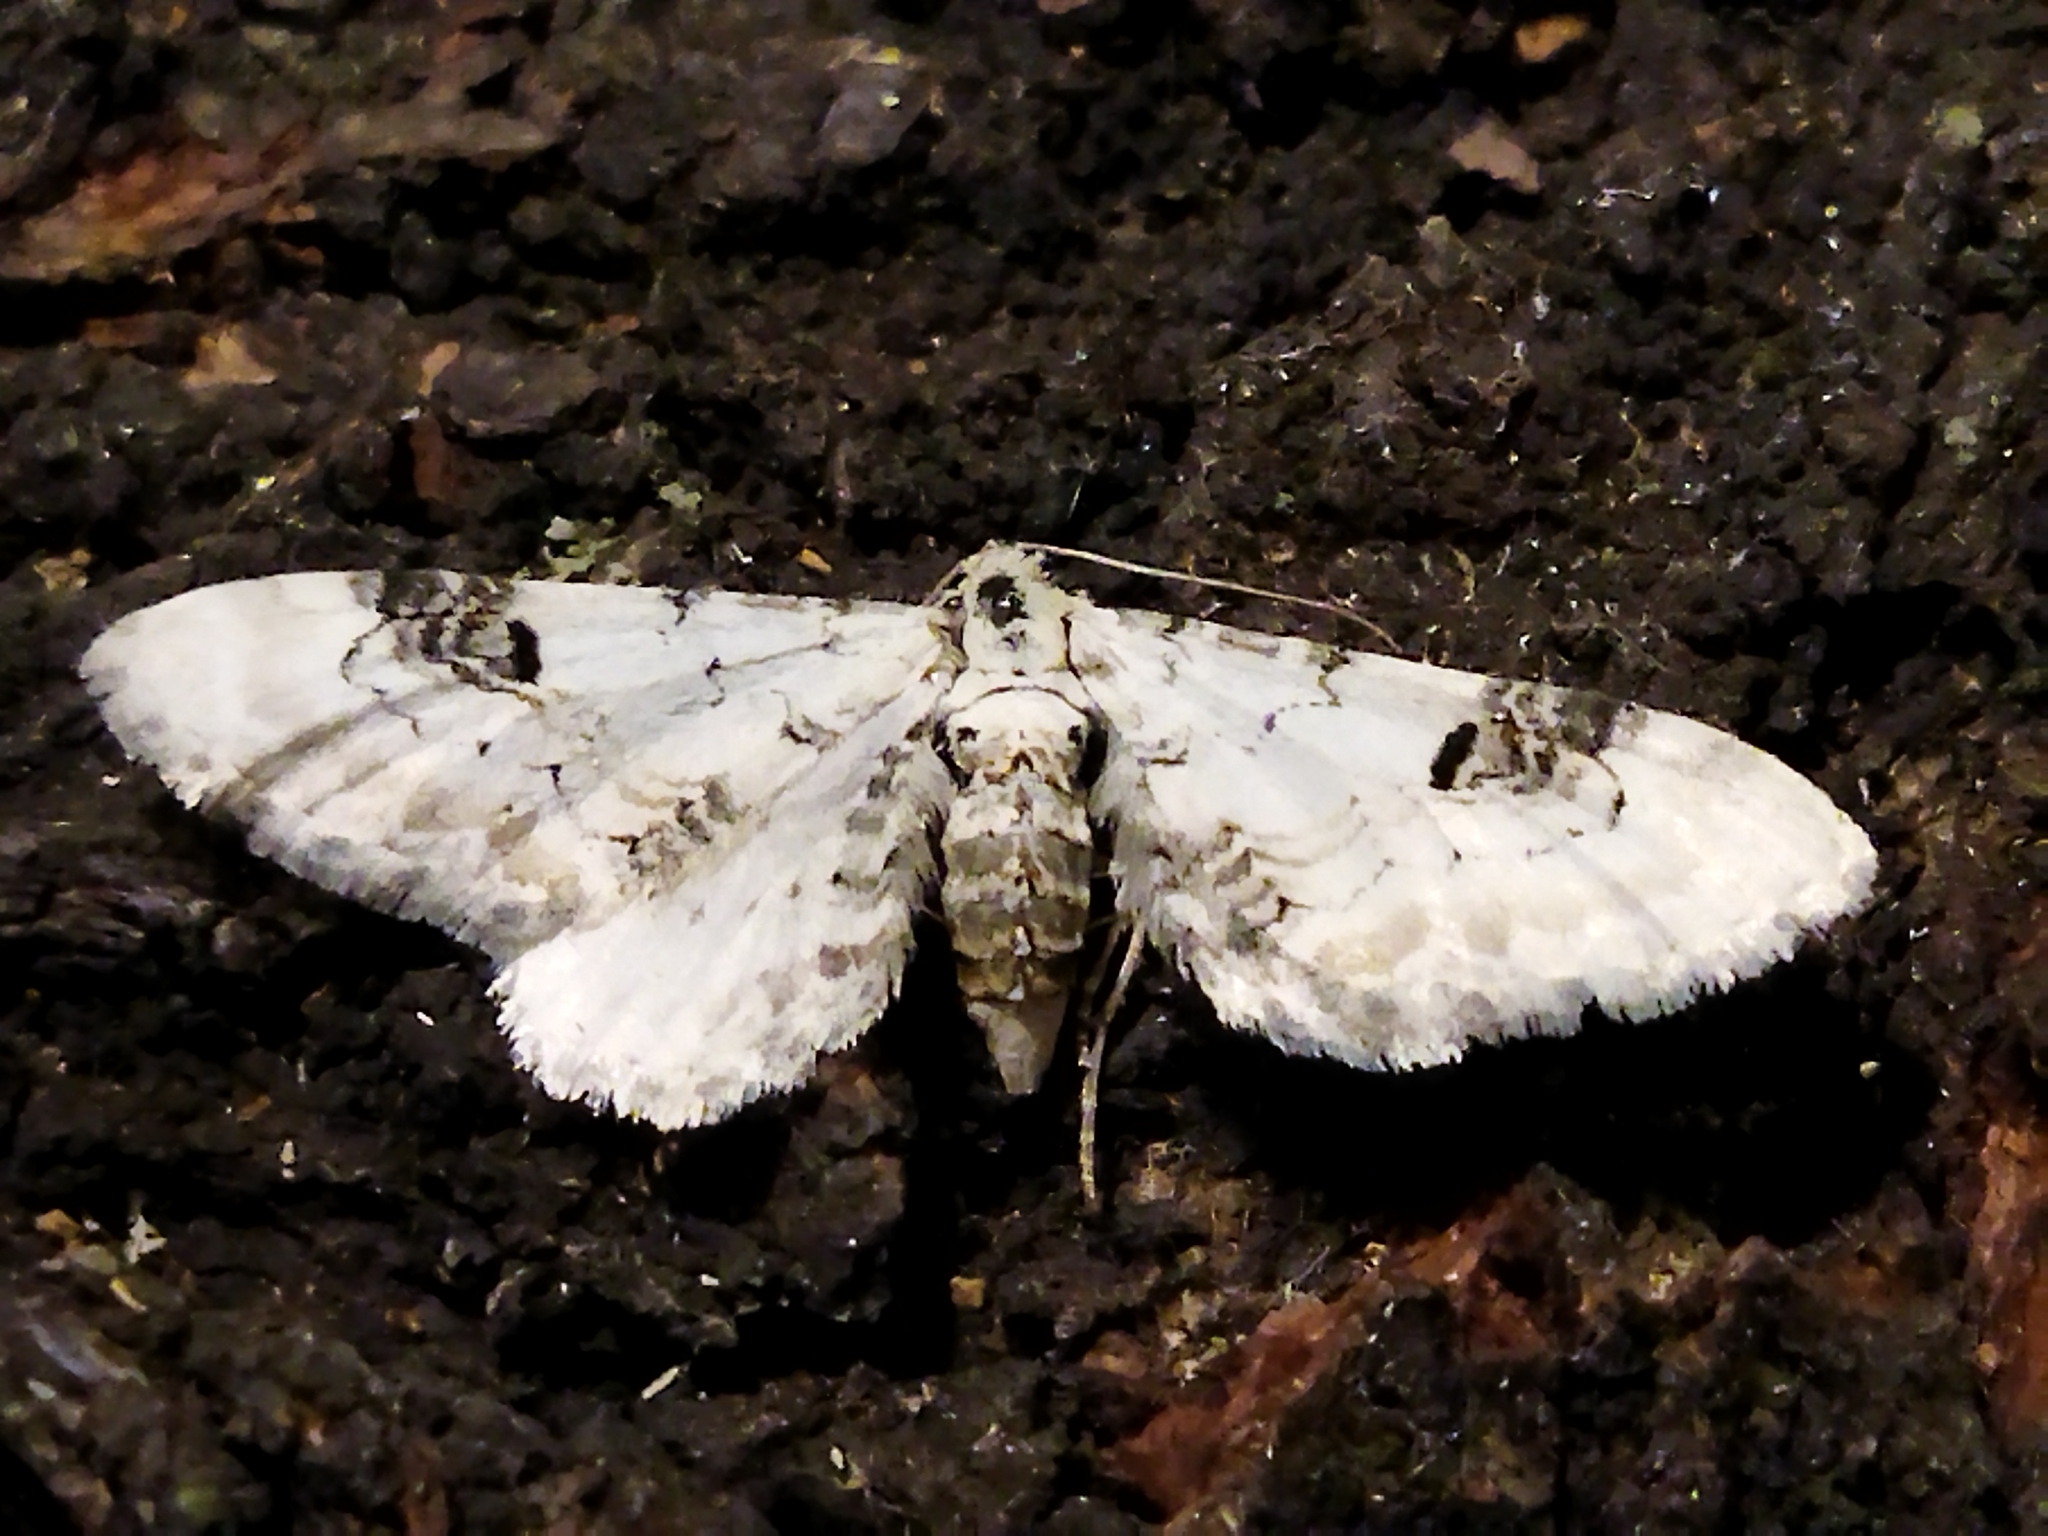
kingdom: Animalia
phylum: Arthropoda
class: Insecta
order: Lepidoptera
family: Geometridae
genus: Eupithecia
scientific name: Eupithecia centaureata
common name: Lime-speck pug
